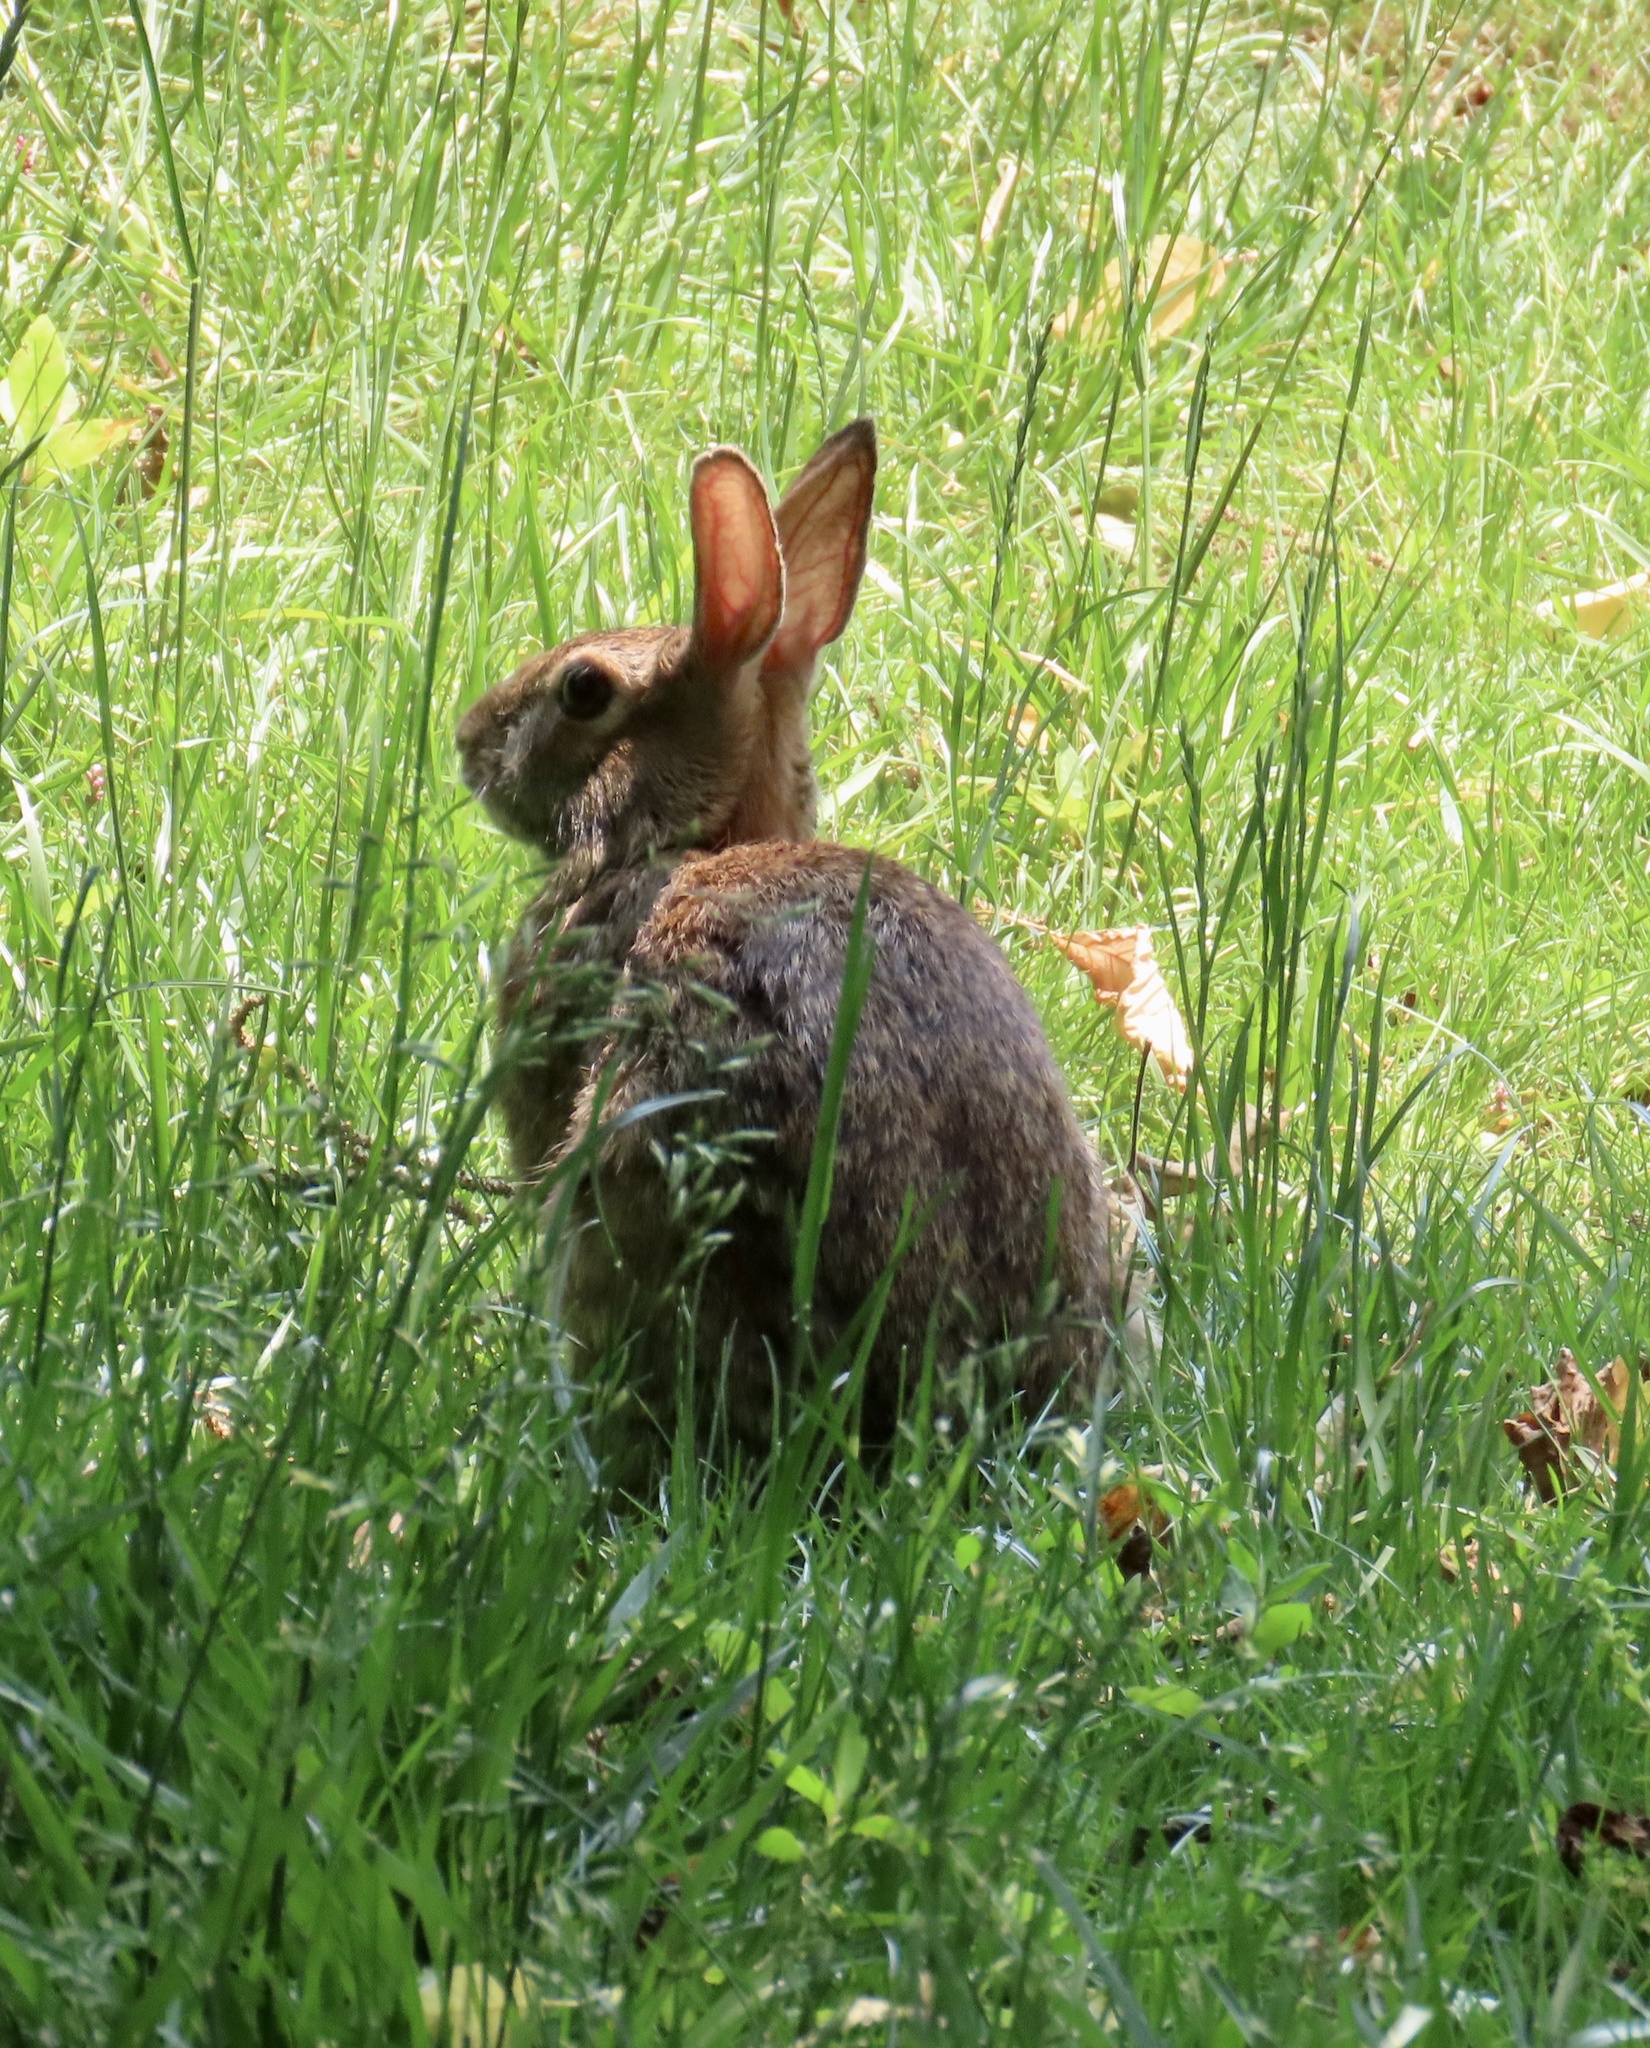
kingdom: Animalia
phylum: Chordata
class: Mammalia
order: Lagomorpha
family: Leporidae
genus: Sylvilagus
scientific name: Sylvilagus floridanus
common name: Eastern cottontail
